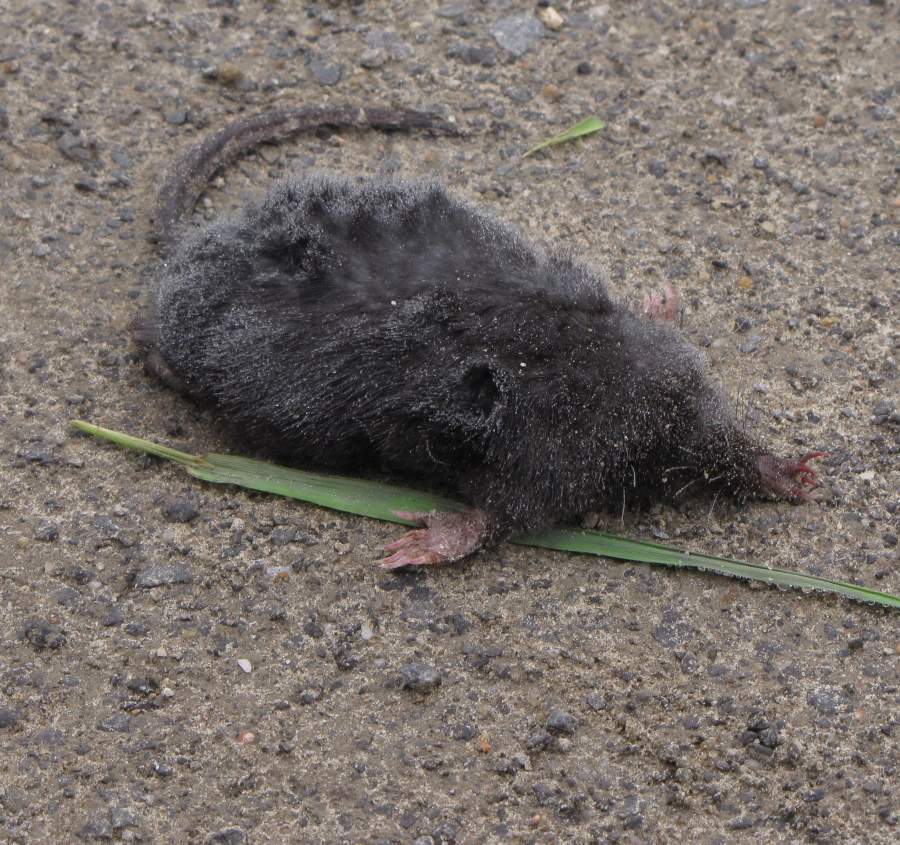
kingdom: Animalia
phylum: Chordata
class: Mammalia
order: Soricomorpha
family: Talpidae
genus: Condylura
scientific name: Condylura cristata
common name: Star-nosed mole
